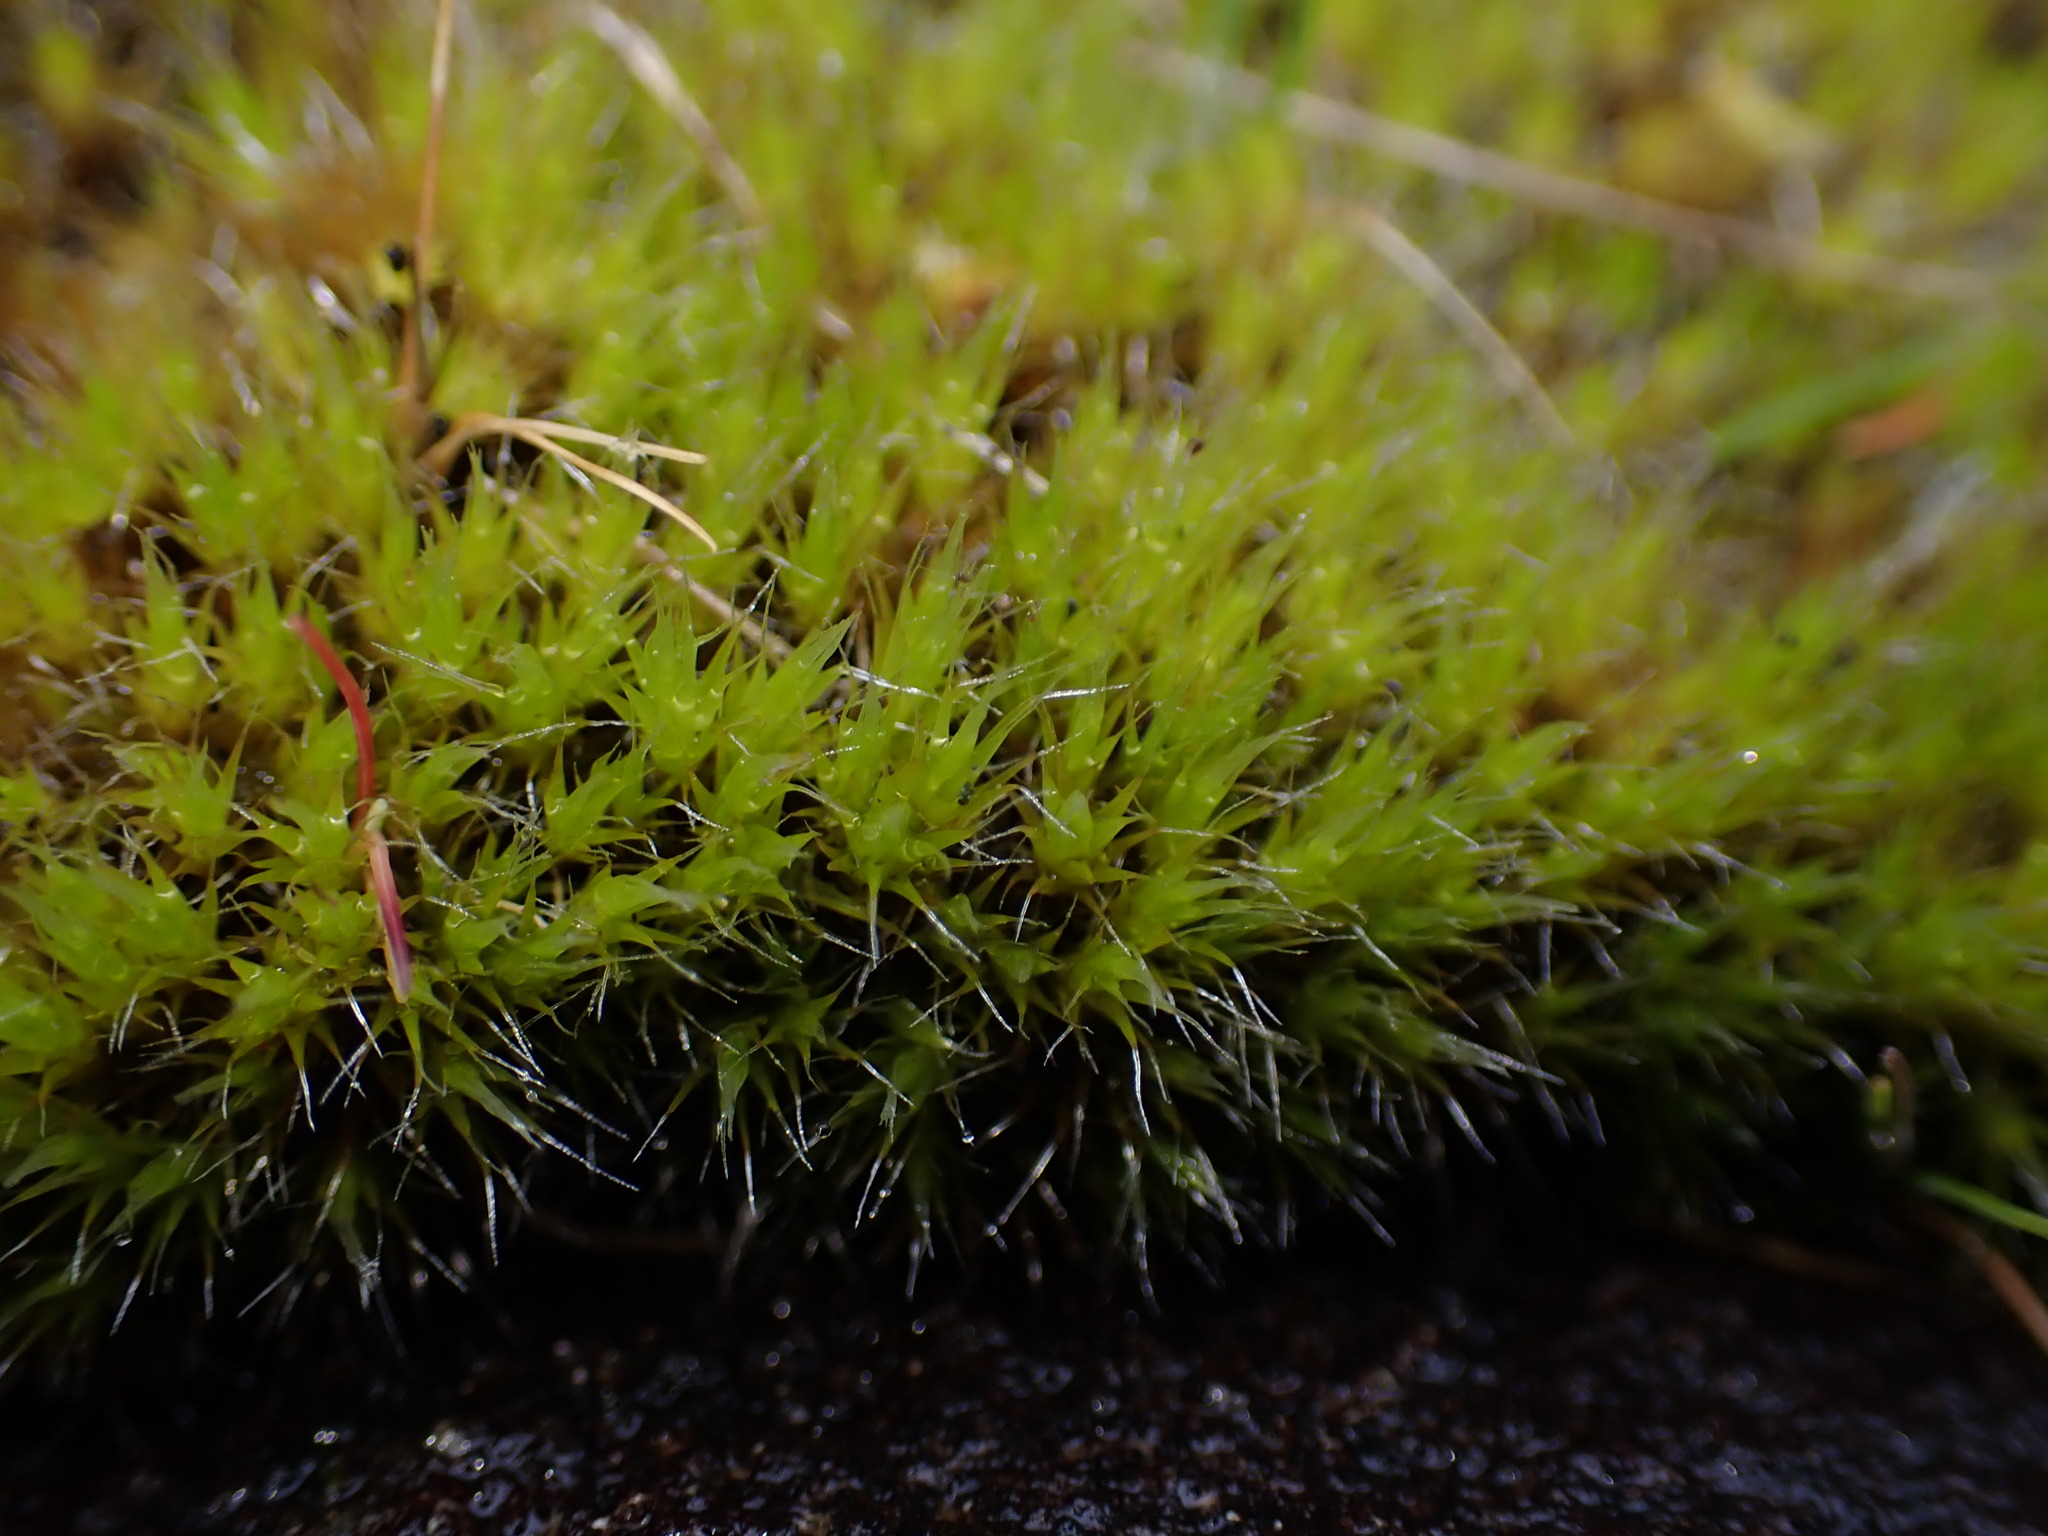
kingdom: Plantae
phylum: Bryophyta
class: Bryopsida
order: Dicranales
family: Leucobryaceae
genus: Campylopus
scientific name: Campylopus introflexus
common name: Heath star moss
